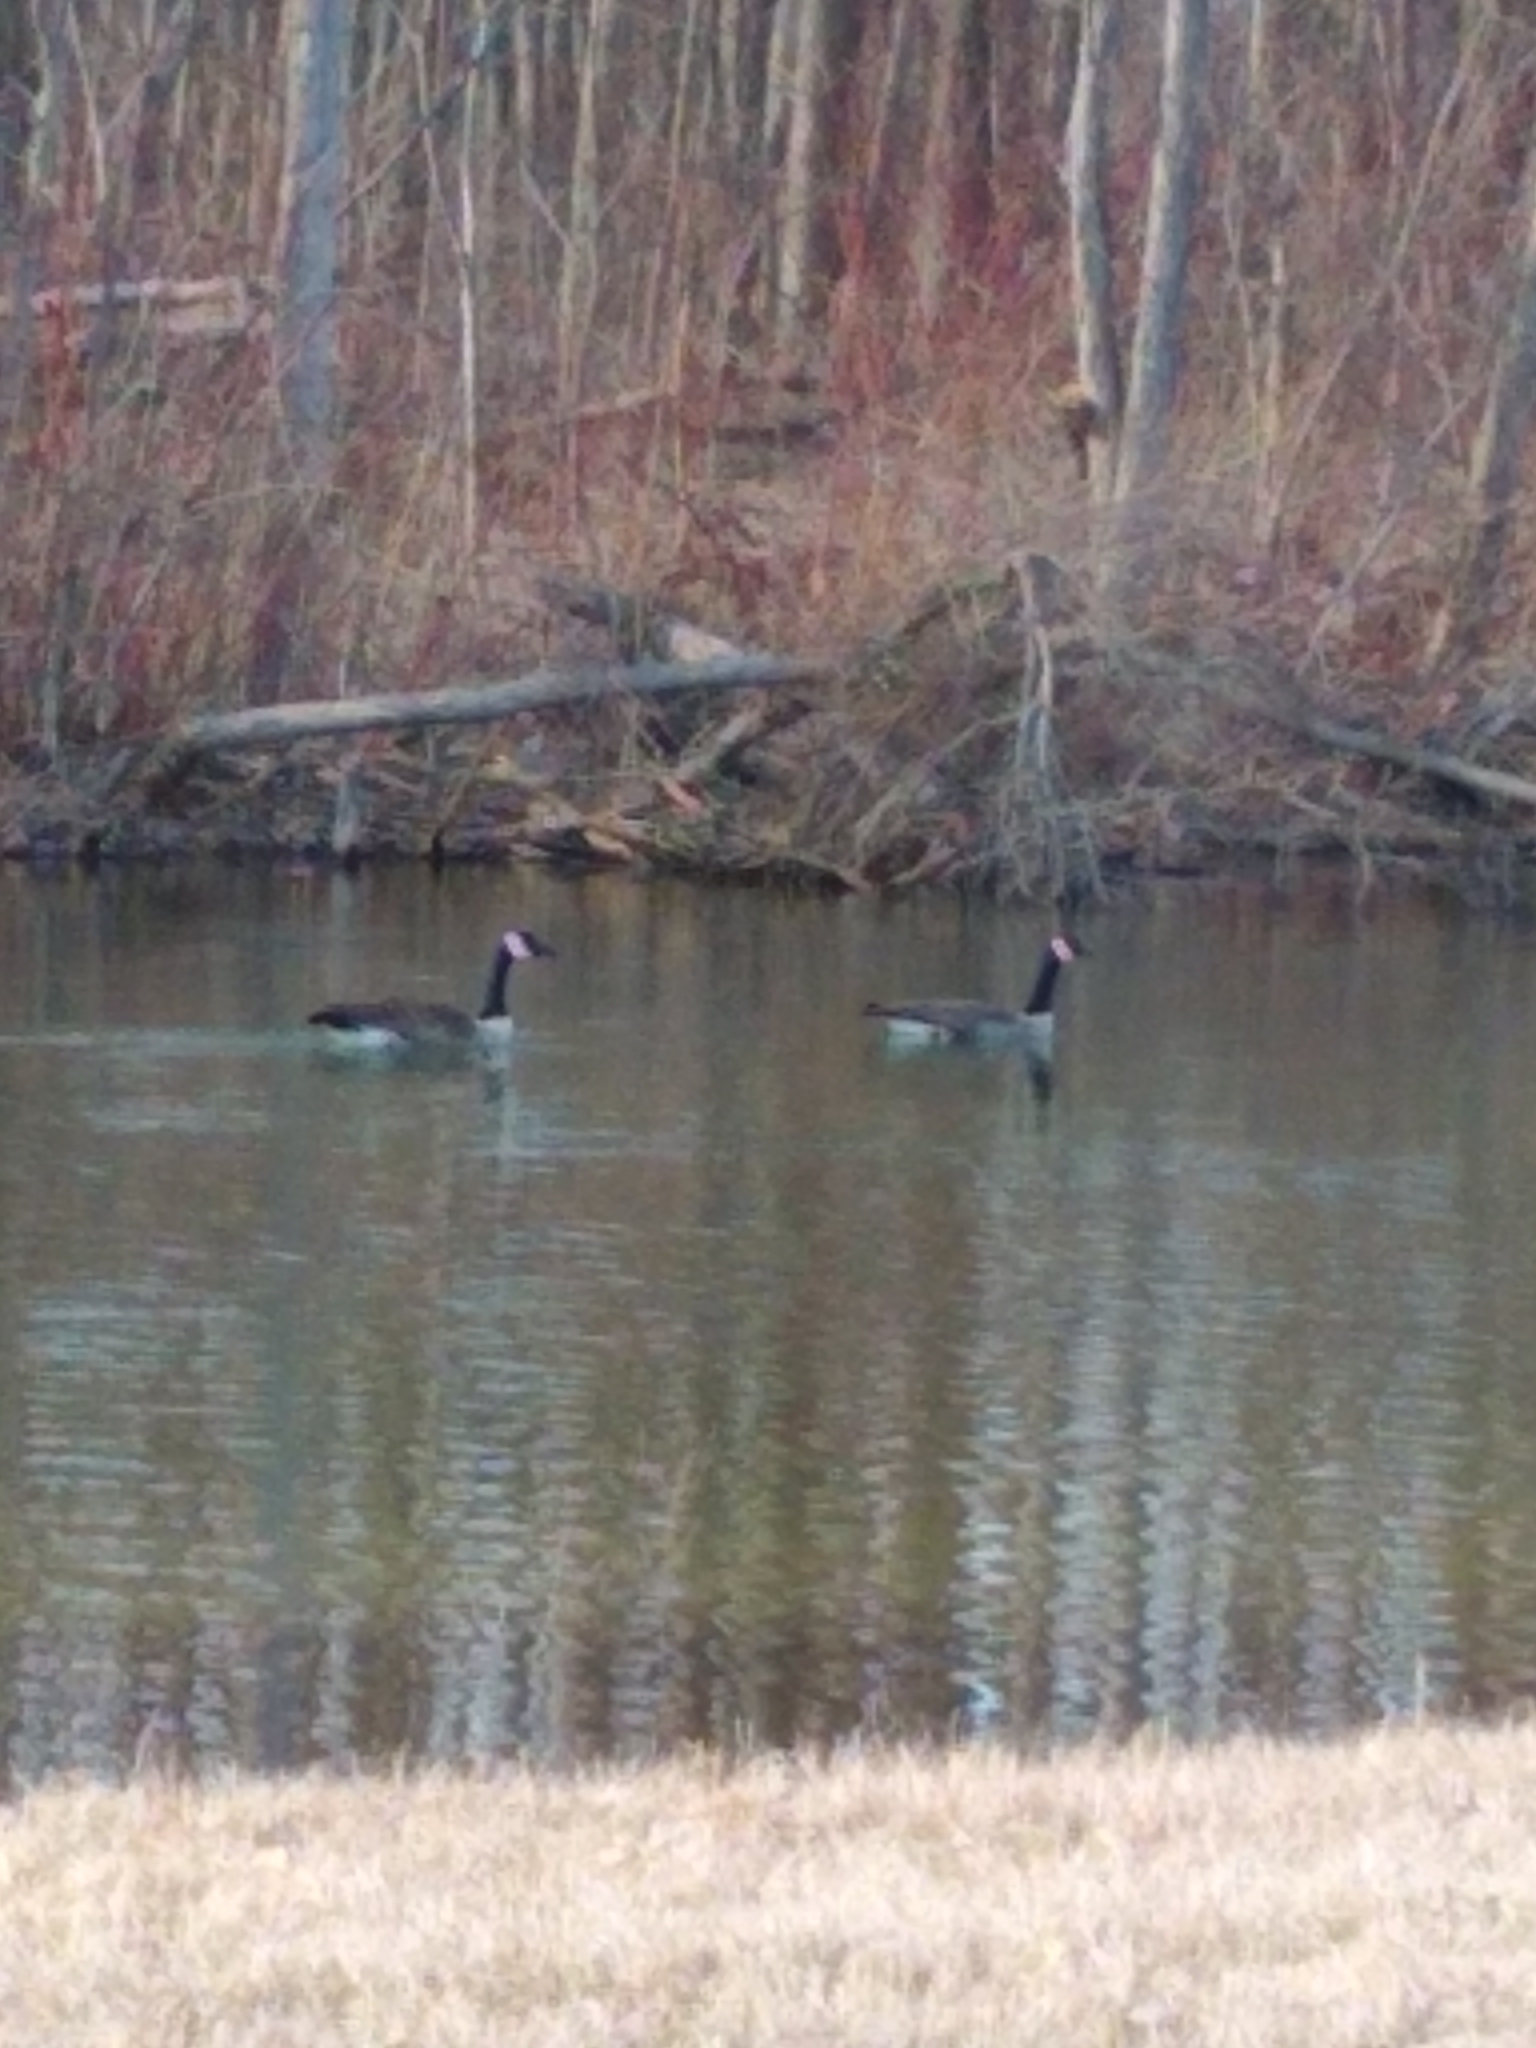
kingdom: Animalia
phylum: Chordata
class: Aves
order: Anseriformes
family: Anatidae
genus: Branta
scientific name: Branta canadensis
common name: Canada goose
